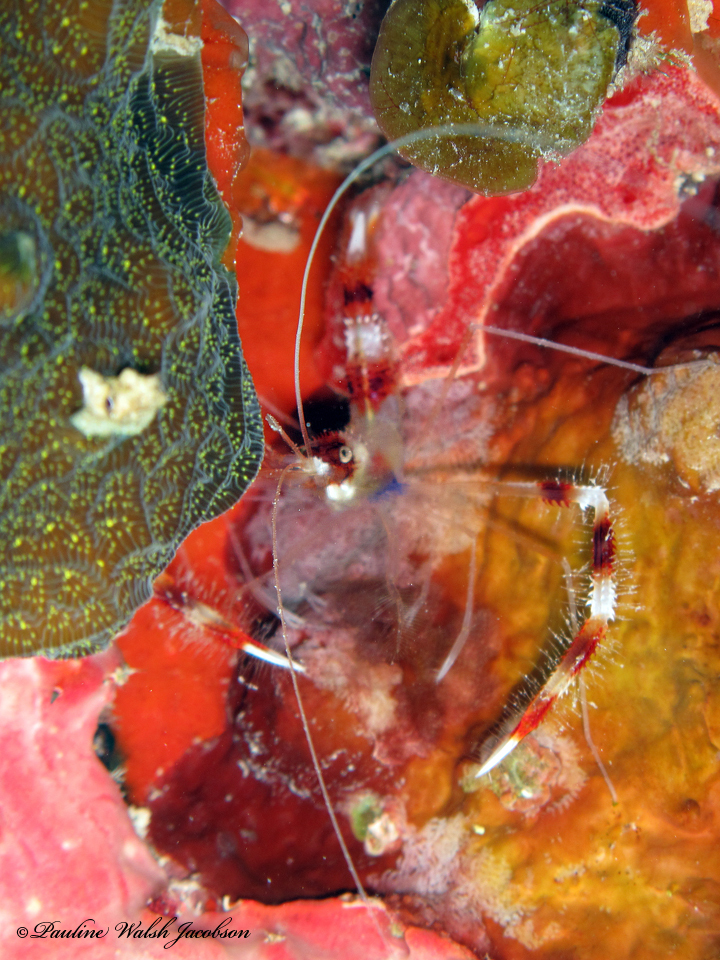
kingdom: Animalia
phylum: Arthropoda
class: Malacostraca
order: Decapoda
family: Stenopodidae
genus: Stenopus
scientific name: Stenopus hispidus
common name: Banded coral shrimp
